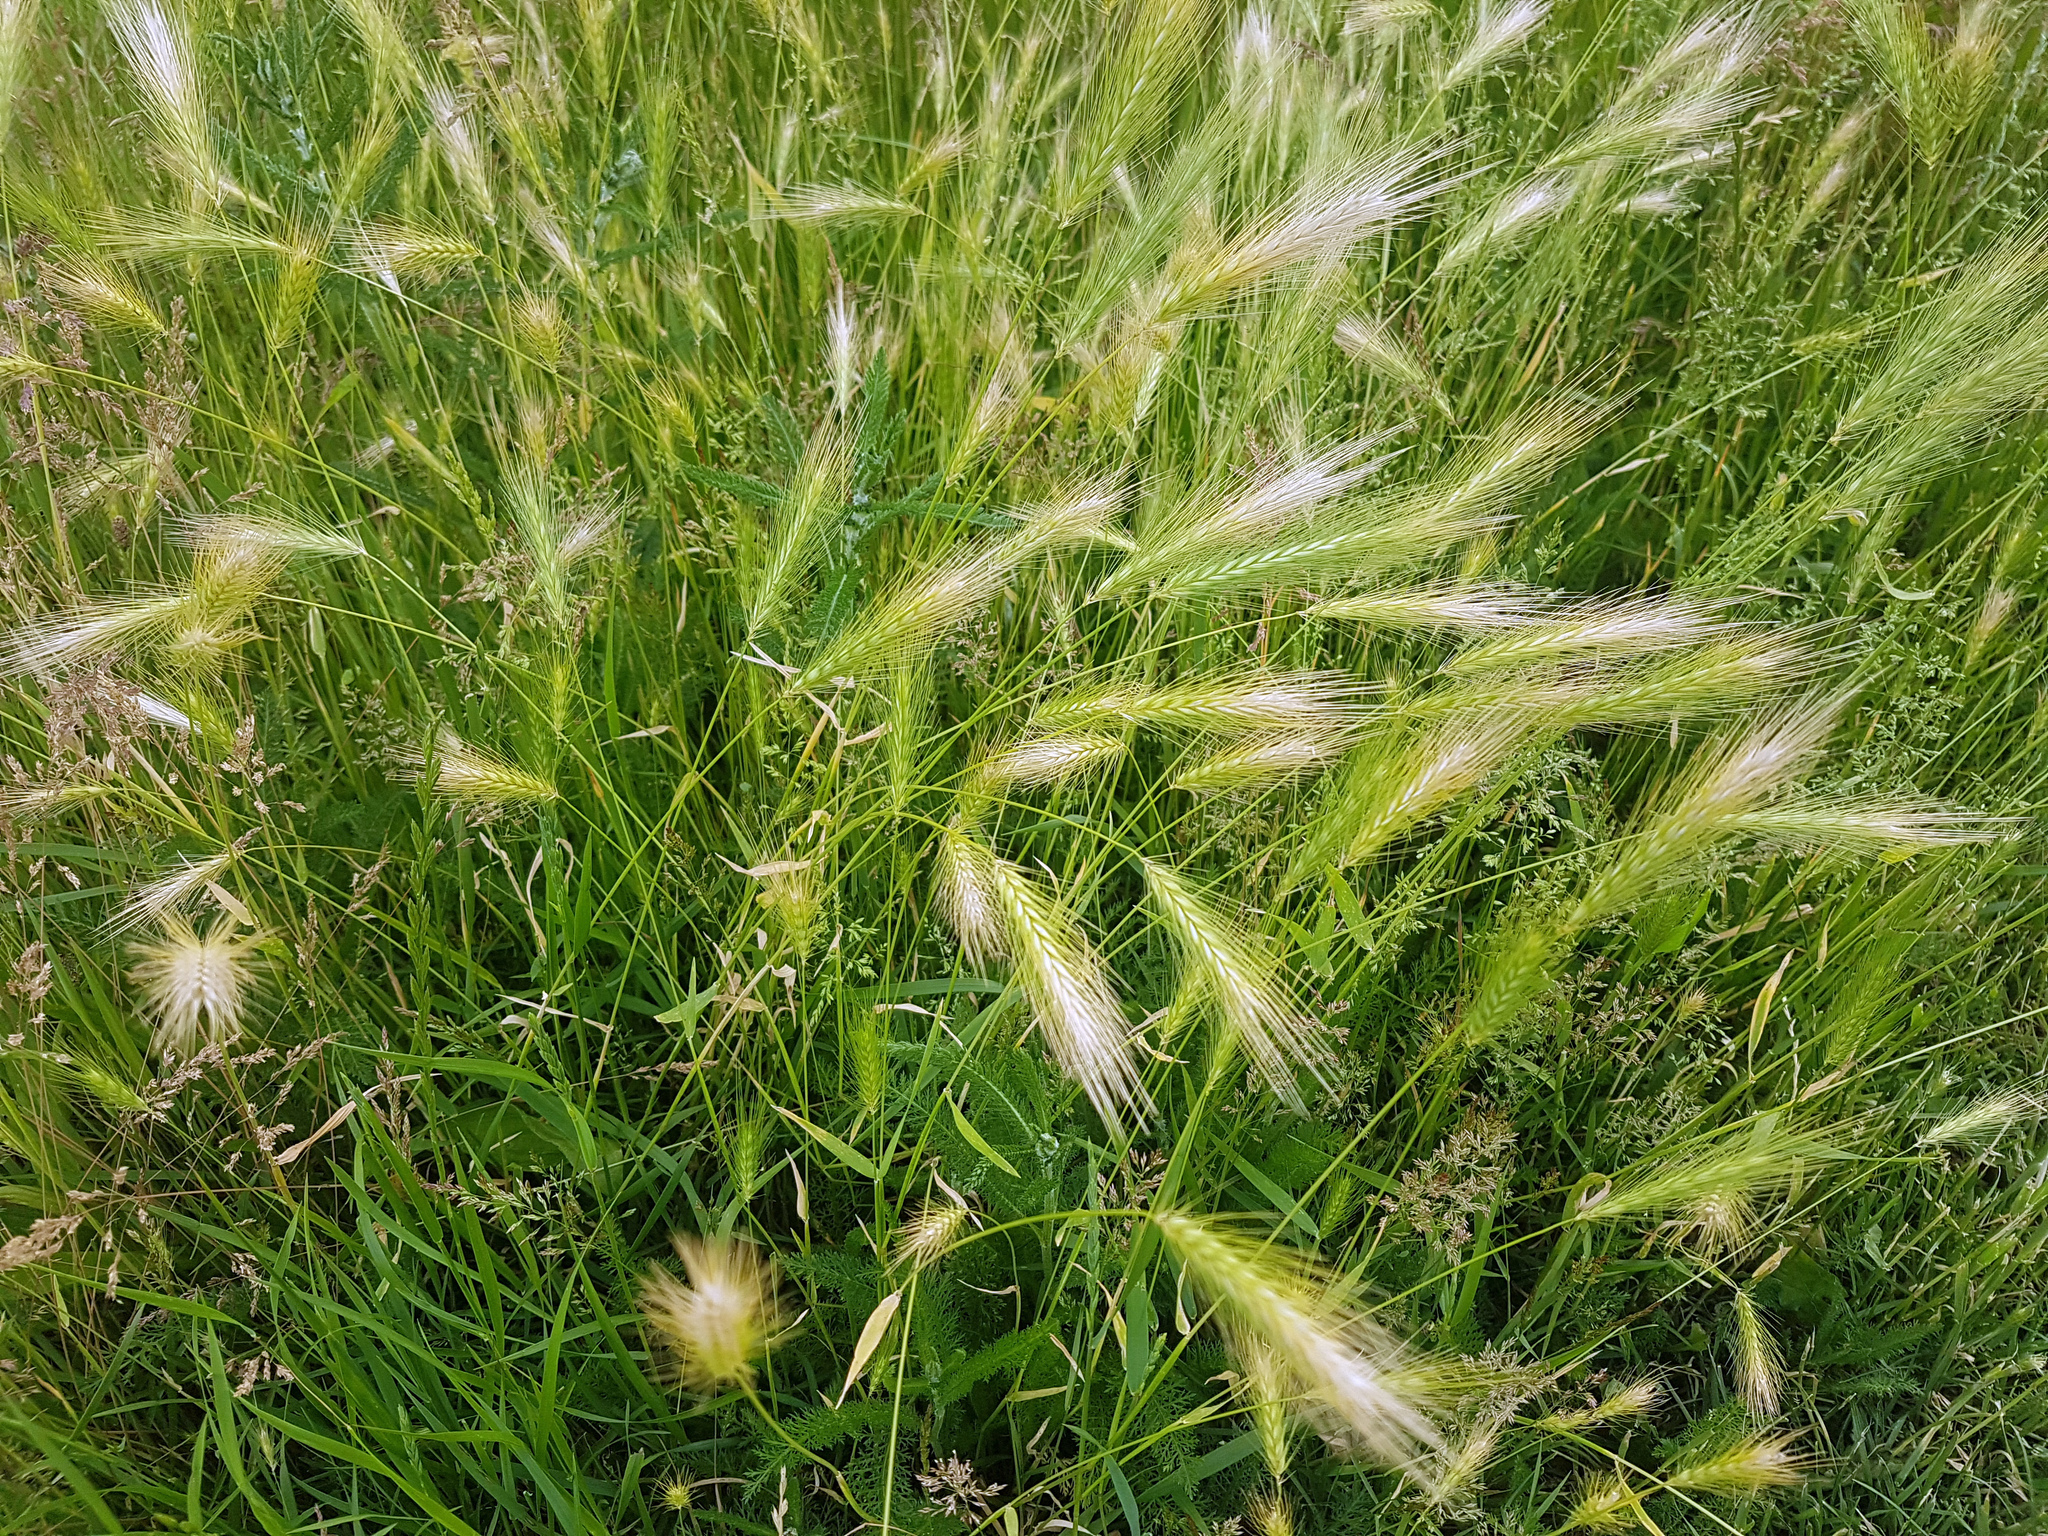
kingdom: Plantae
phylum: Tracheophyta
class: Liliopsida
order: Poales
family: Poaceae
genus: Hordeum
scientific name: Hordeum murinum
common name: Wall barley
